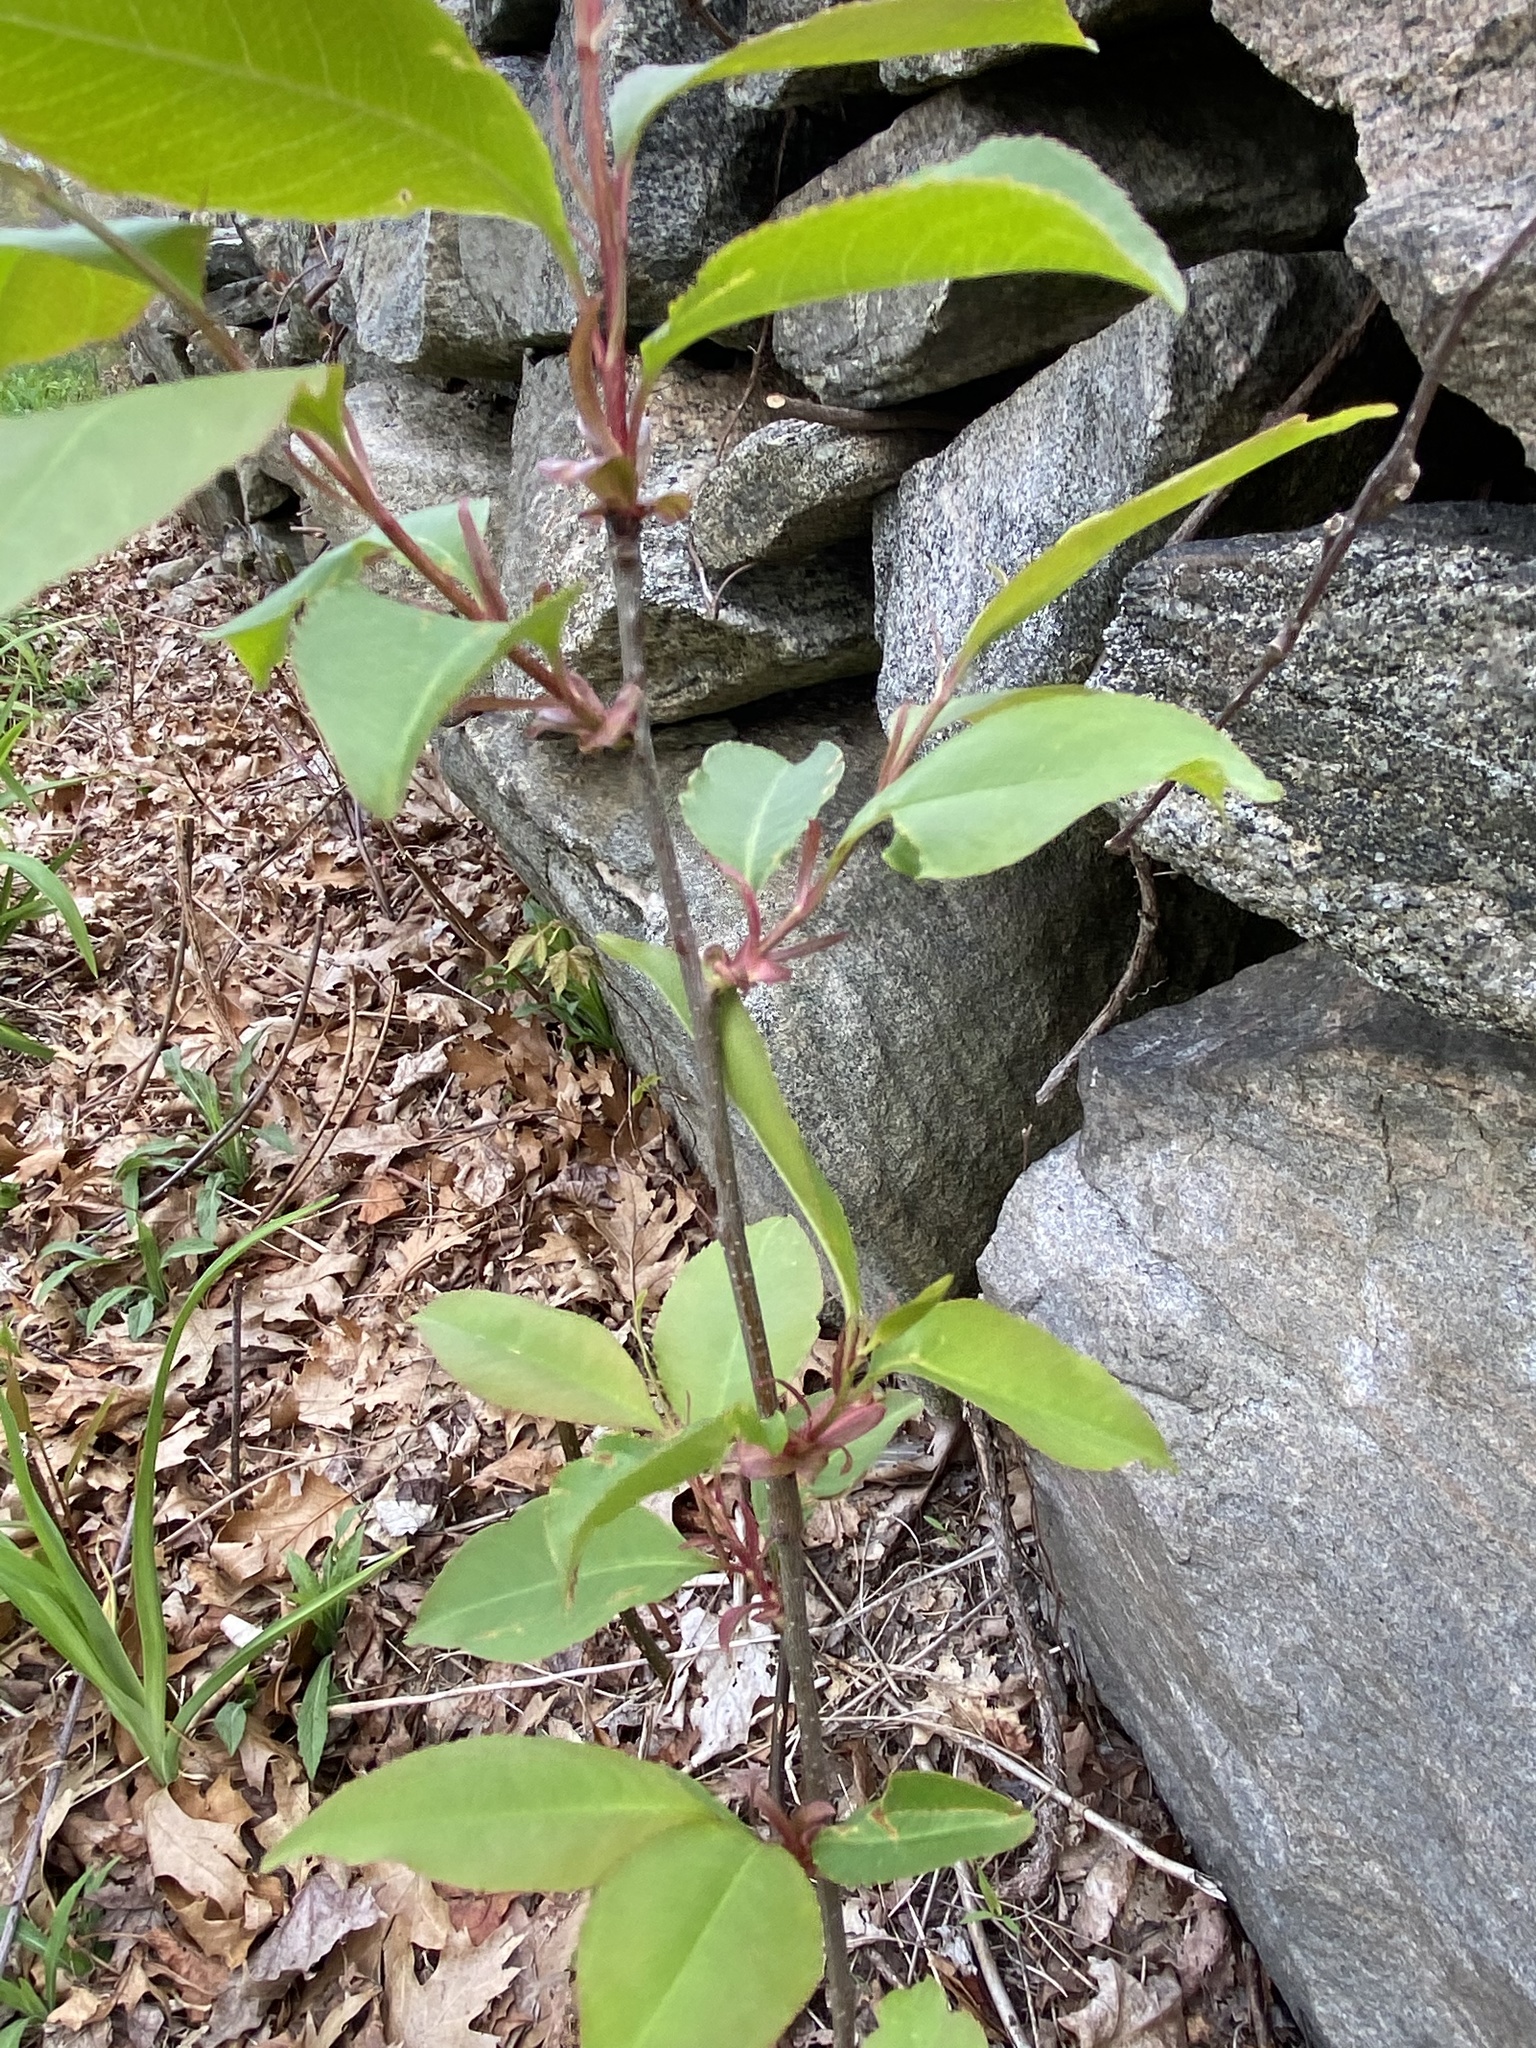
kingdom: Plantae
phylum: Tracheophyta
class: Magnoliopsida
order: Rosales
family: Rosaceae
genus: Prunus
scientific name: Prunus serotina
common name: Black cherry
